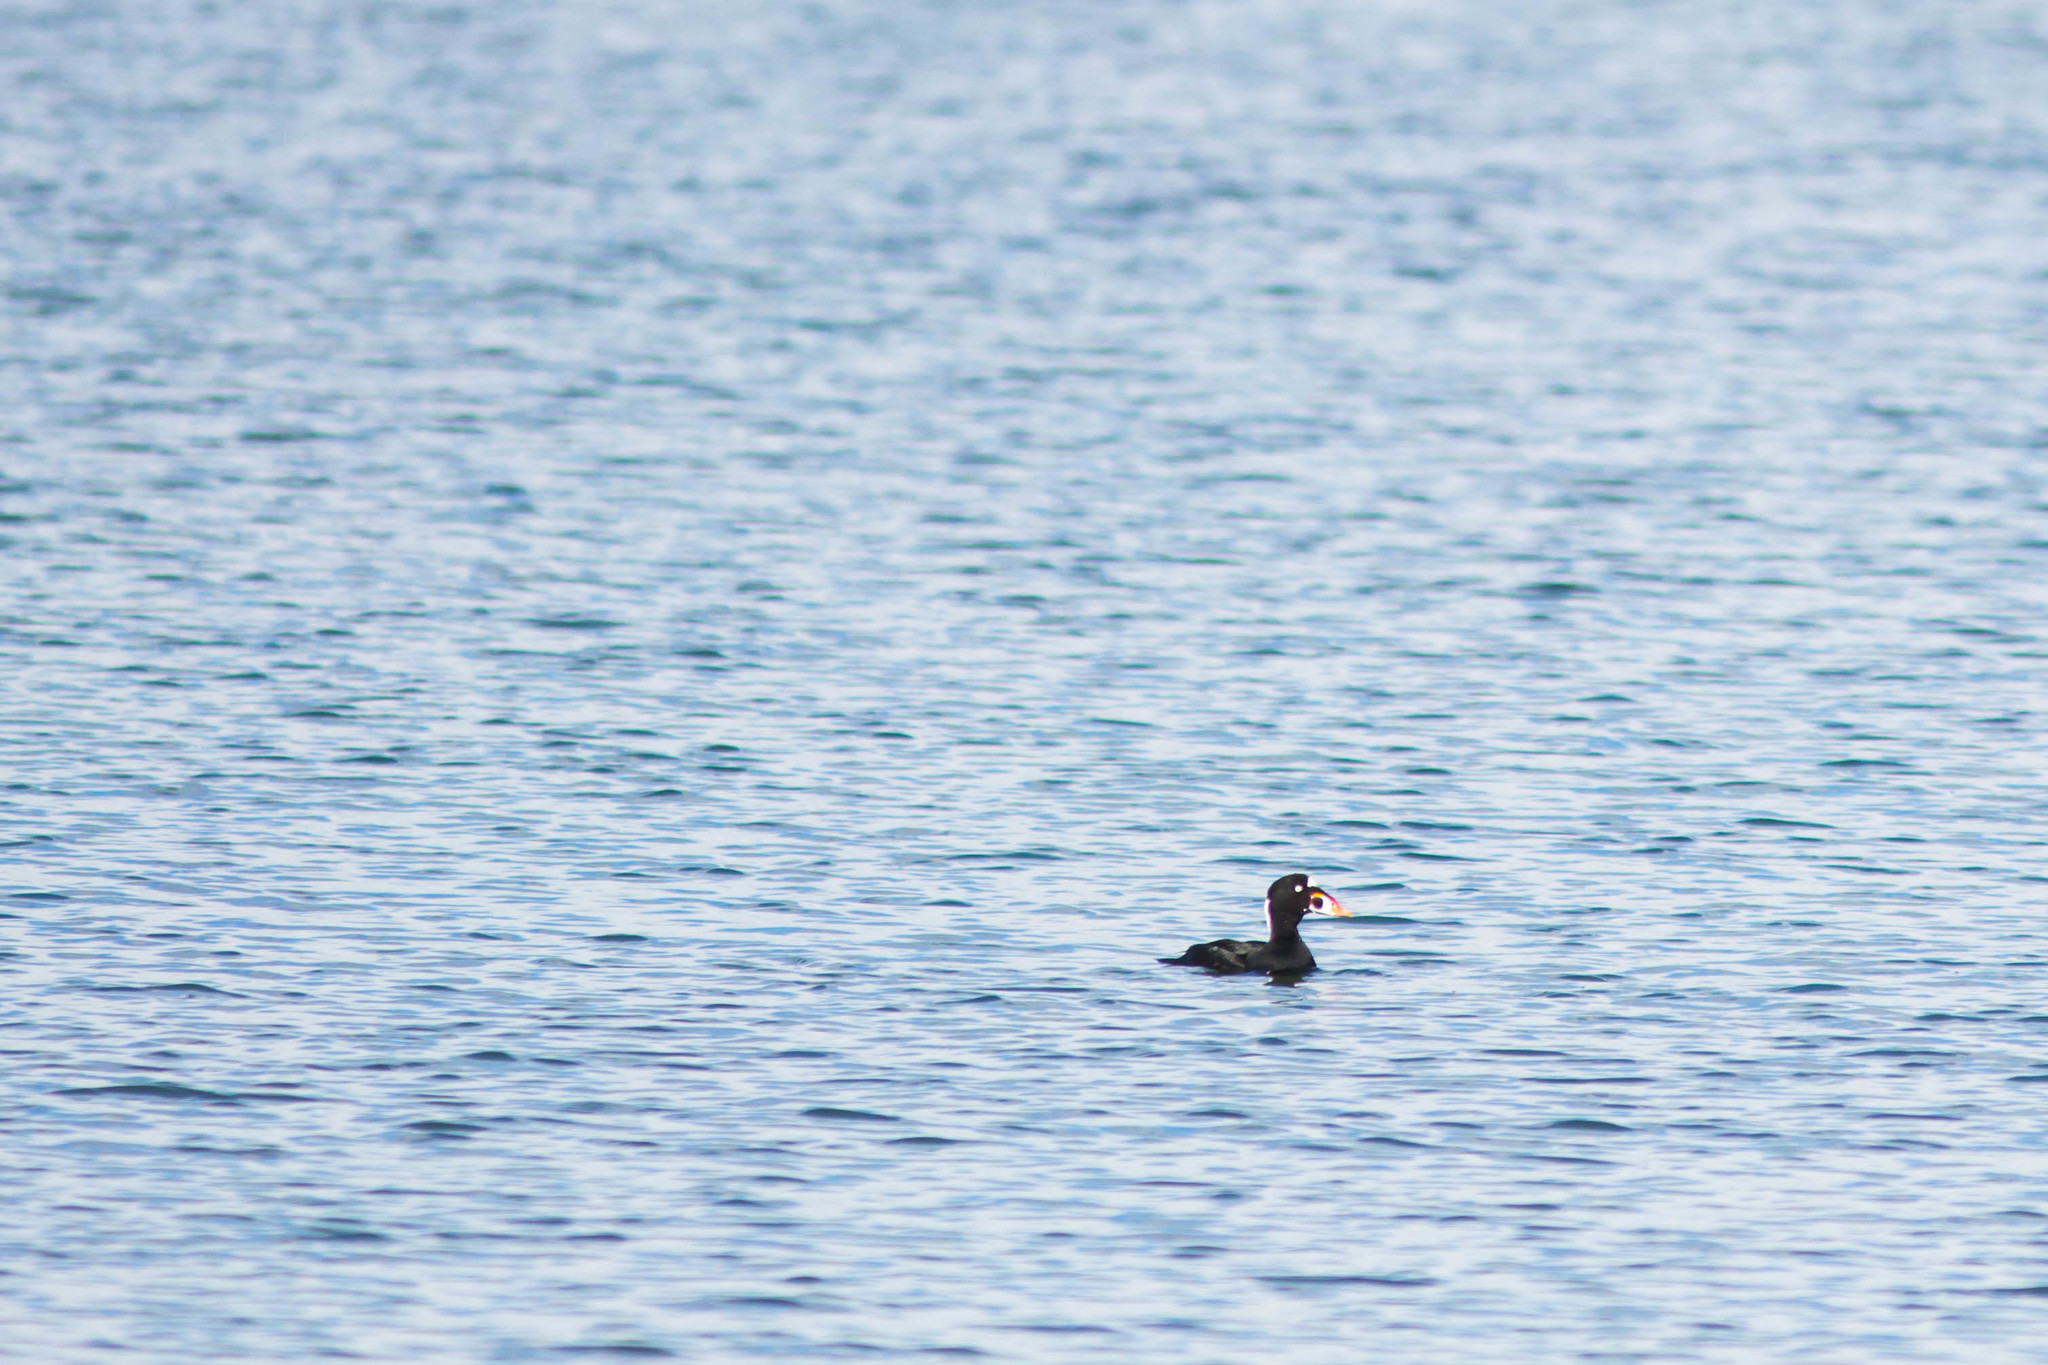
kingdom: Animalia
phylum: Chordata
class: Aves
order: Anseriformes
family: Anatidae
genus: Melanitta
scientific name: Melanitta perspicillata
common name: Surf scoter
